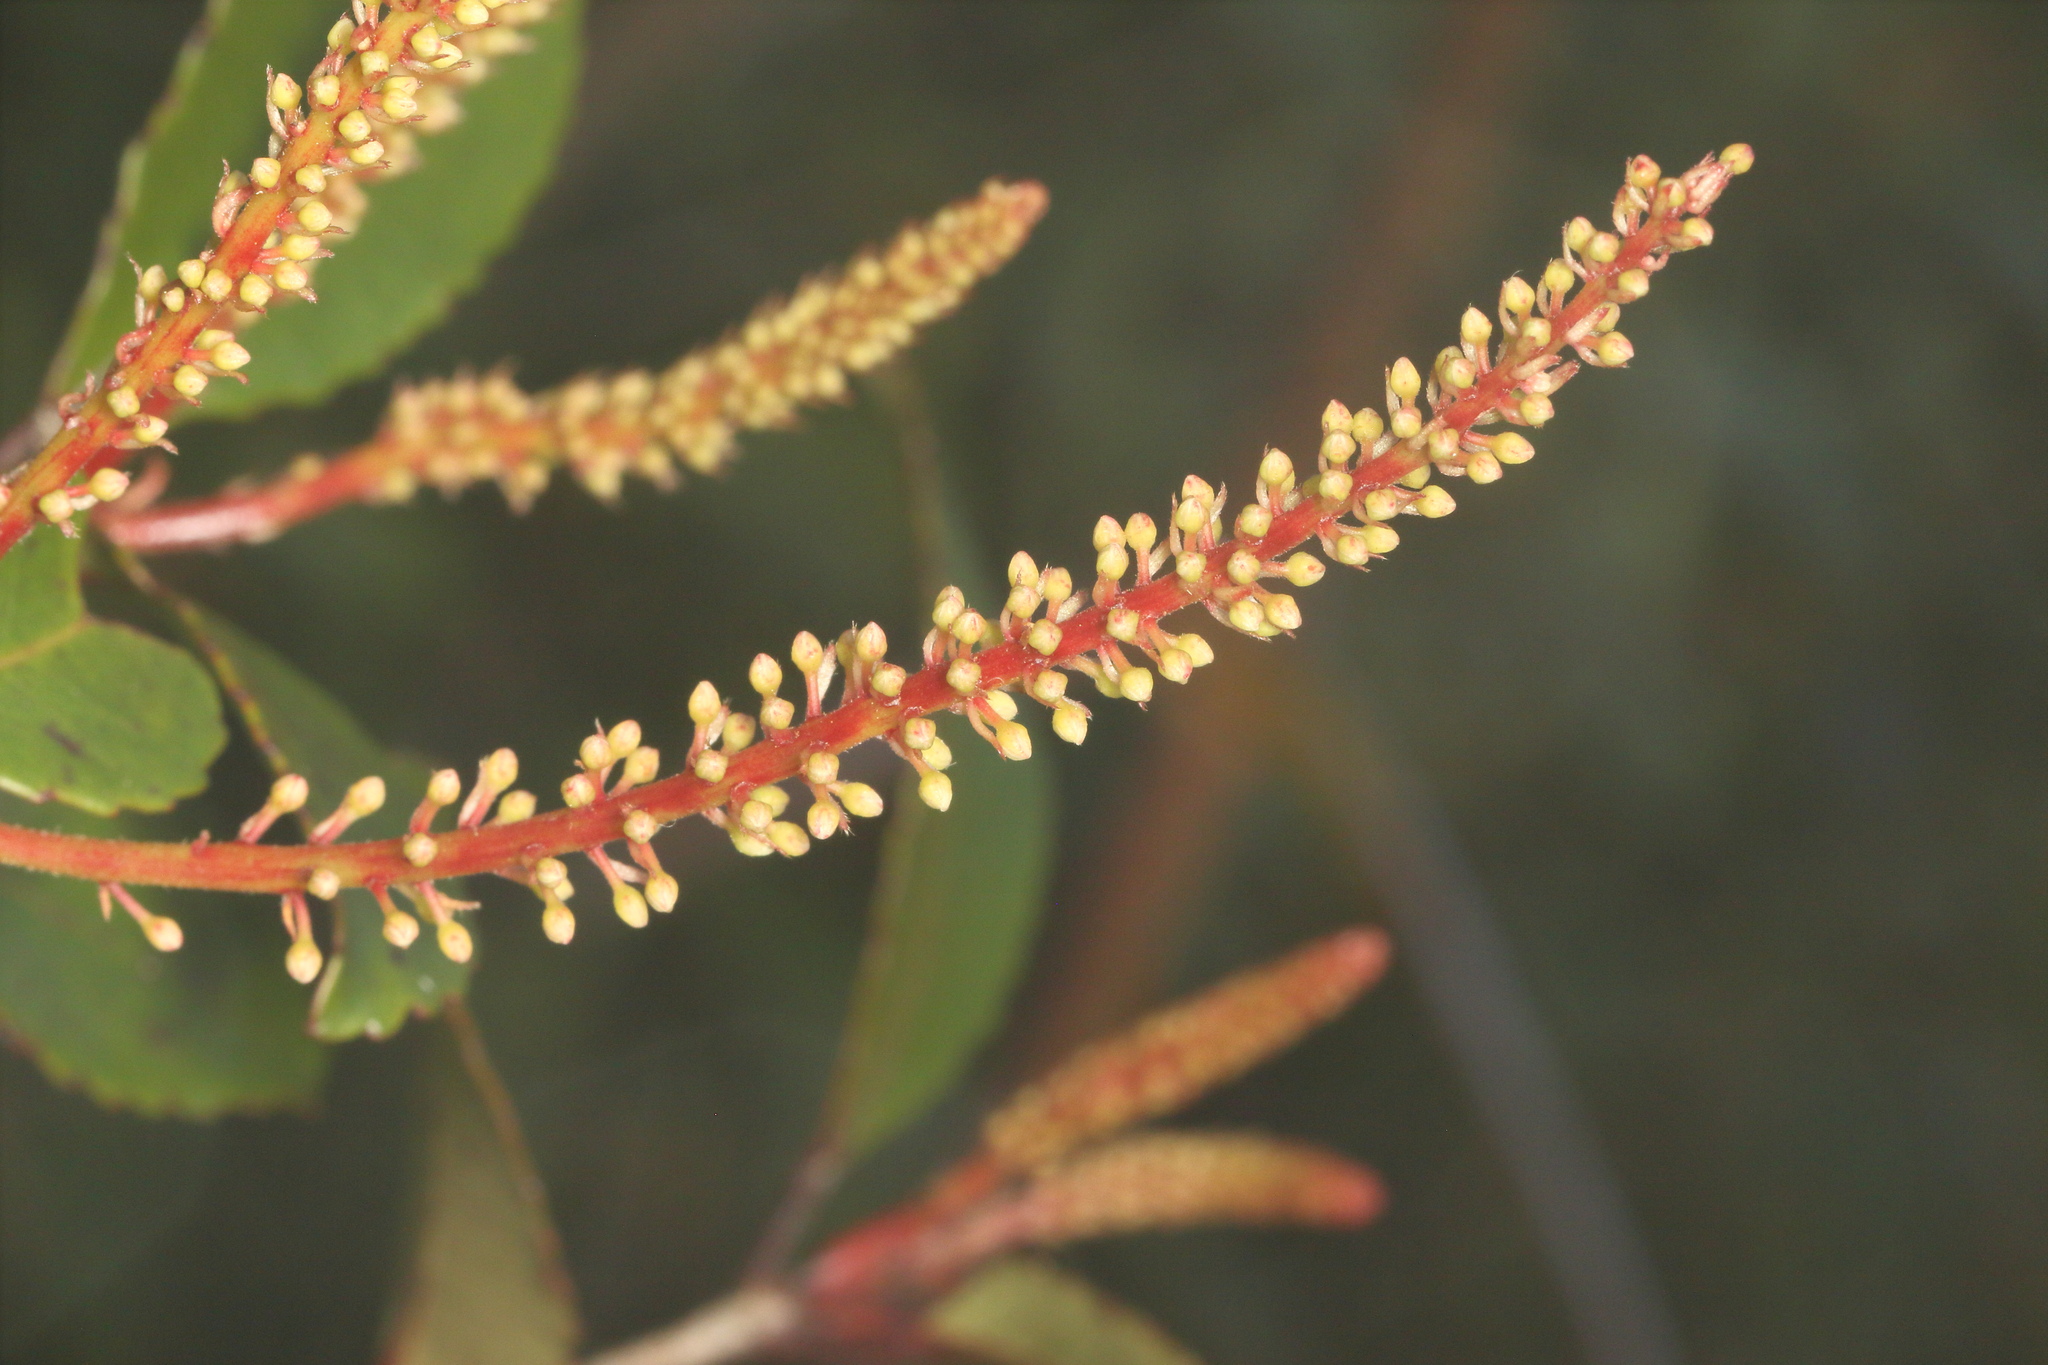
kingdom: Plantae
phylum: Tracheophyta
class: Magnoliopsida
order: Oxalidales
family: Cunoniaceae
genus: Pterophylla
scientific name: Pterophylla racemosa
